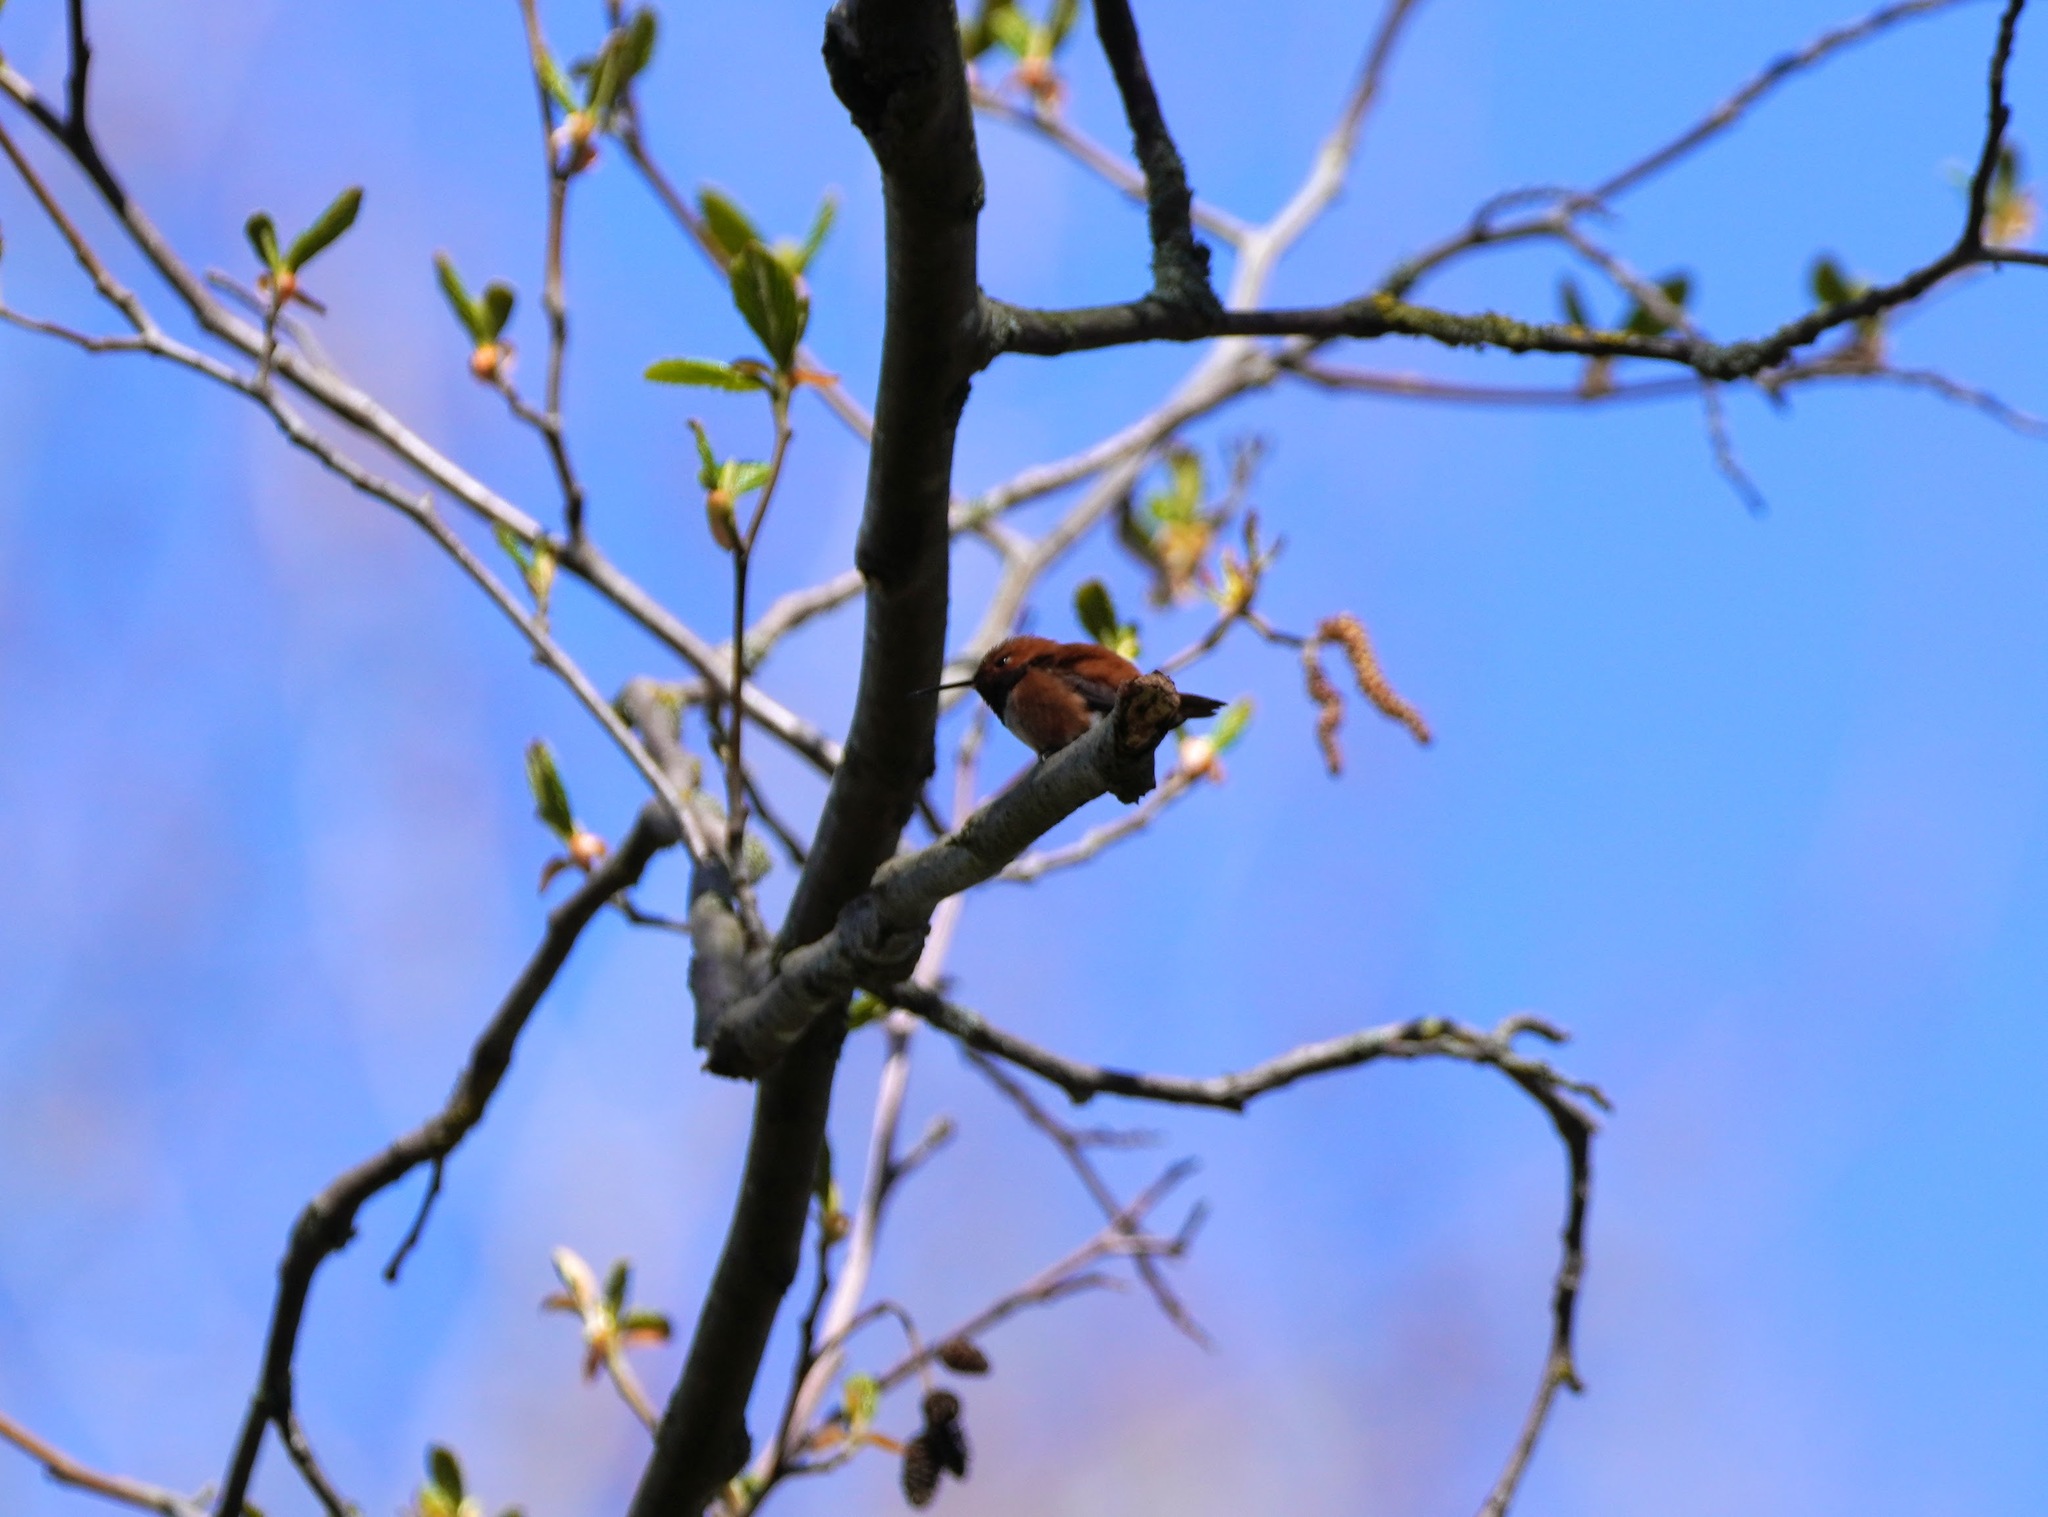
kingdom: Animalia
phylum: Chordata
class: Aves
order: Apodiformes
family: Trochilidae
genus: Selasphorus
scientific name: Selasphorus rufus
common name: Rufous hummingbird
